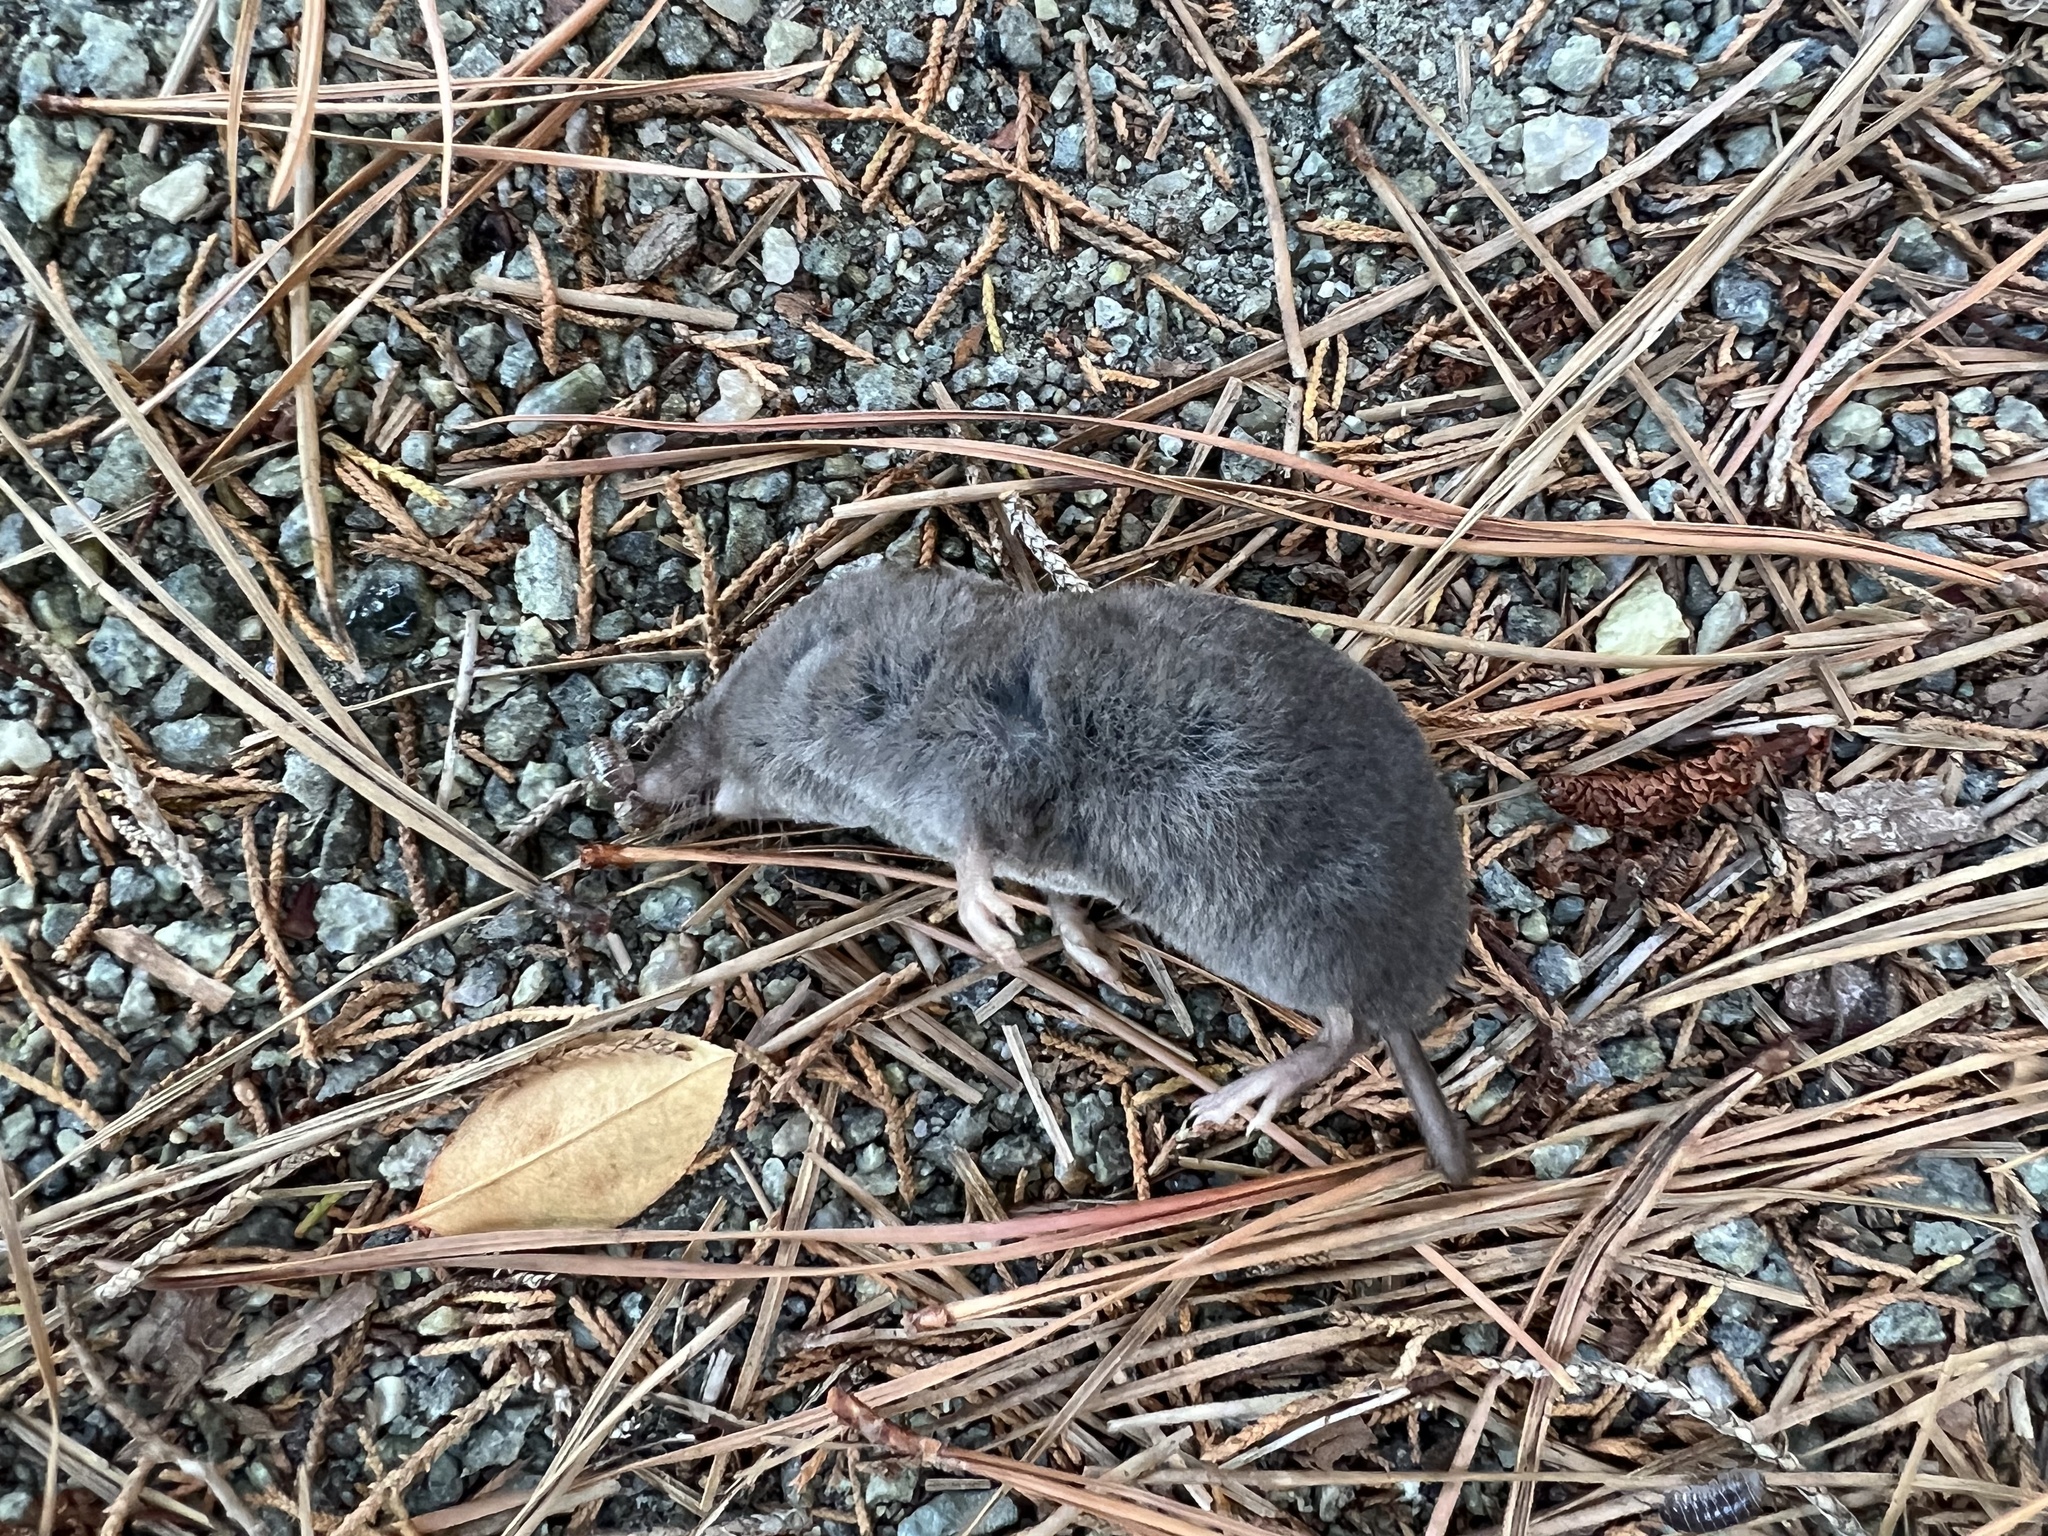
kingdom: Animalia
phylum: Chordata
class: Mammalia
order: Soricomorpha
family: Soricidae
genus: Blarina
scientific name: Blarina brevicauda
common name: Northern short-tailed shrew
